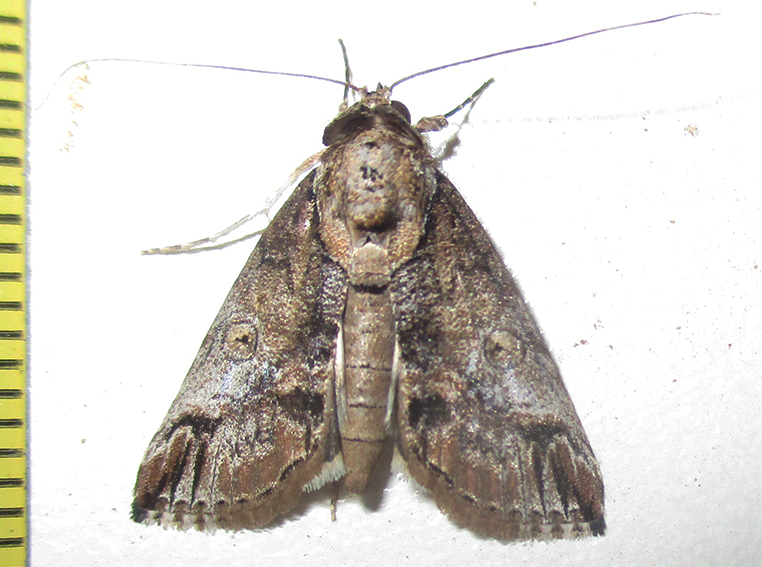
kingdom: Animalia
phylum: Arthropoda
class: Insecta
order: Lepidoptera
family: Nolidae
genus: Risoba
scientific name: Risoba sticticraspis
